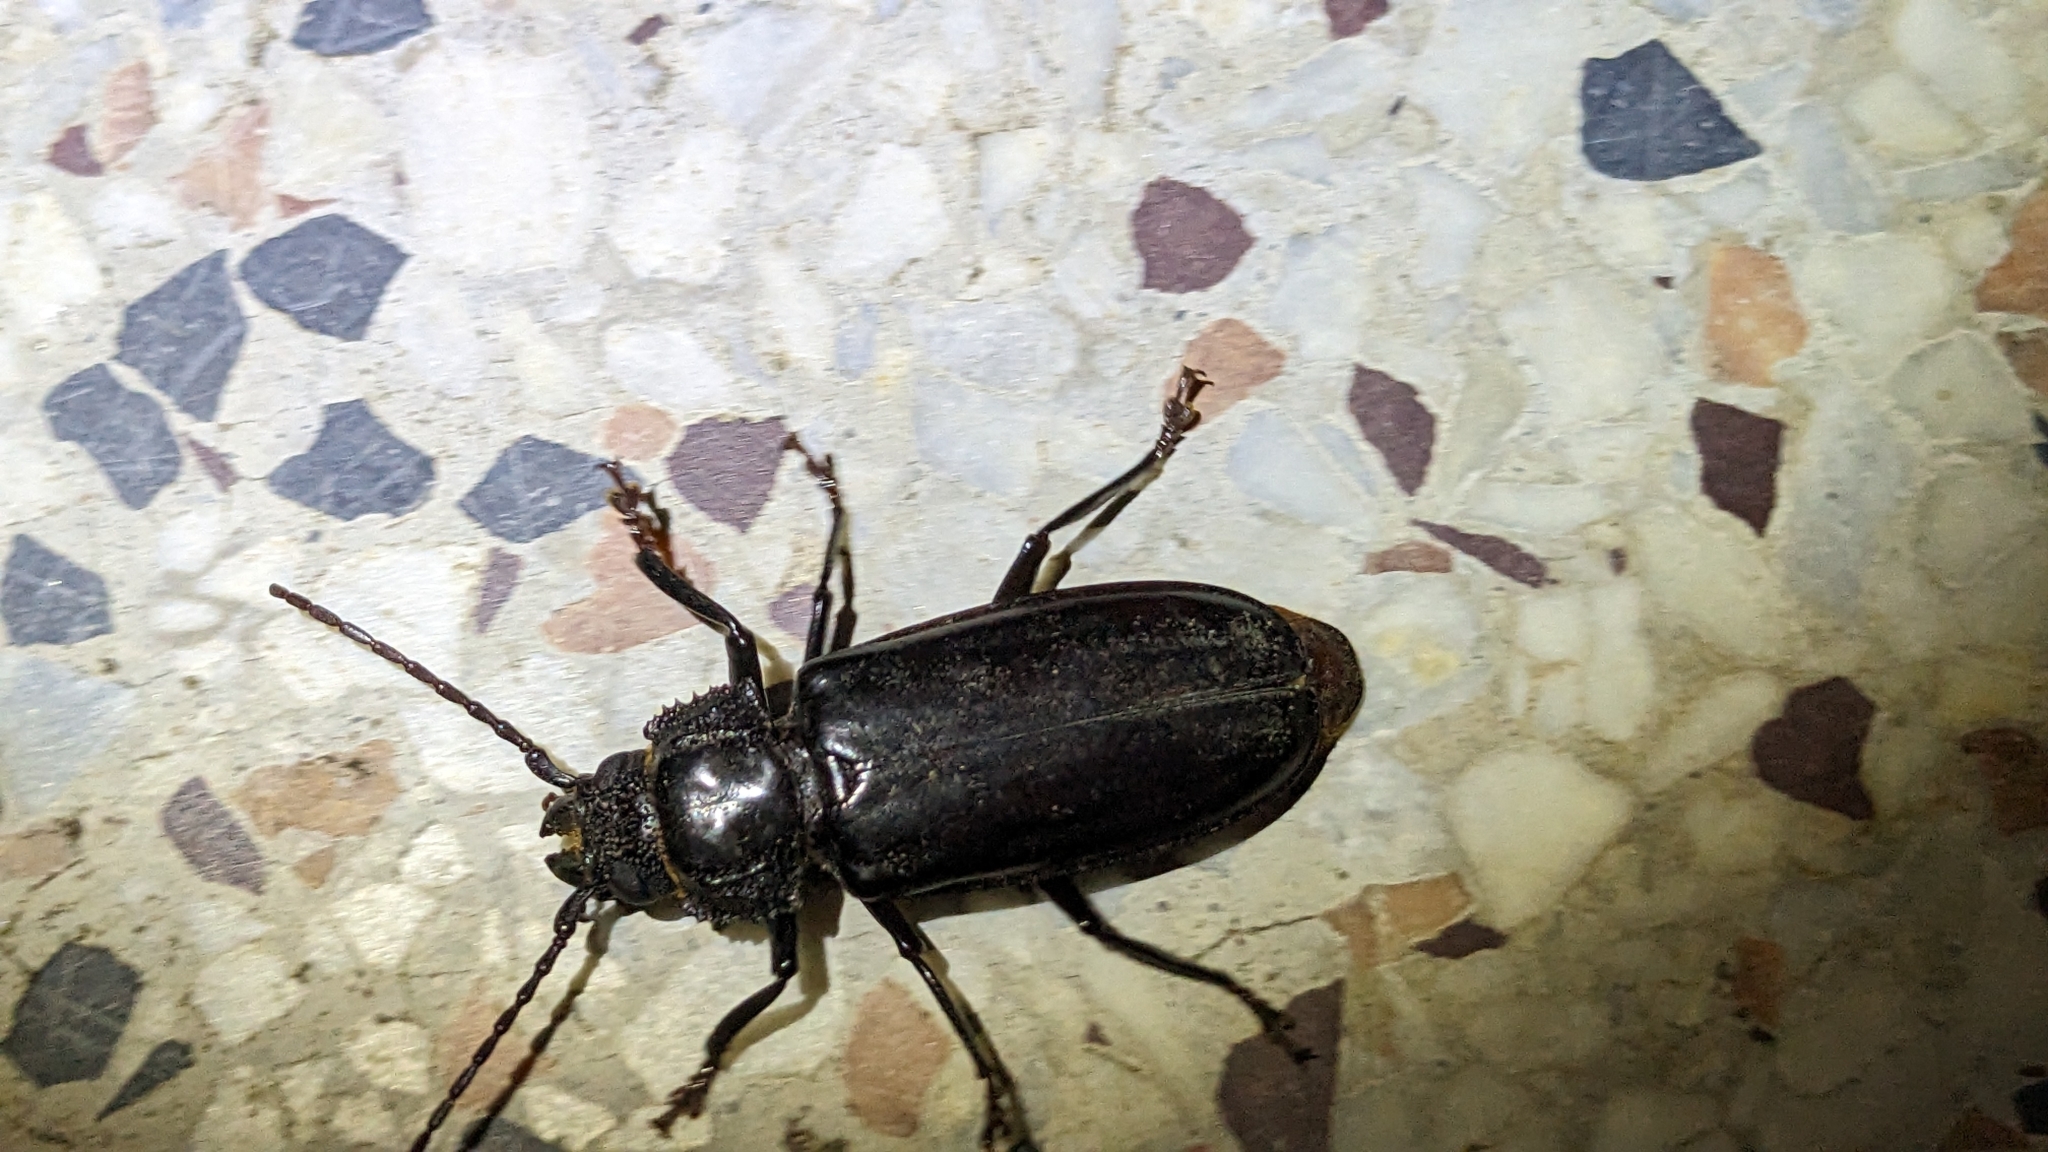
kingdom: Animalia
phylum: Arthropoda
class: Insecta
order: Coleoptera
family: Cerambycidae
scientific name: Cerambycidae
